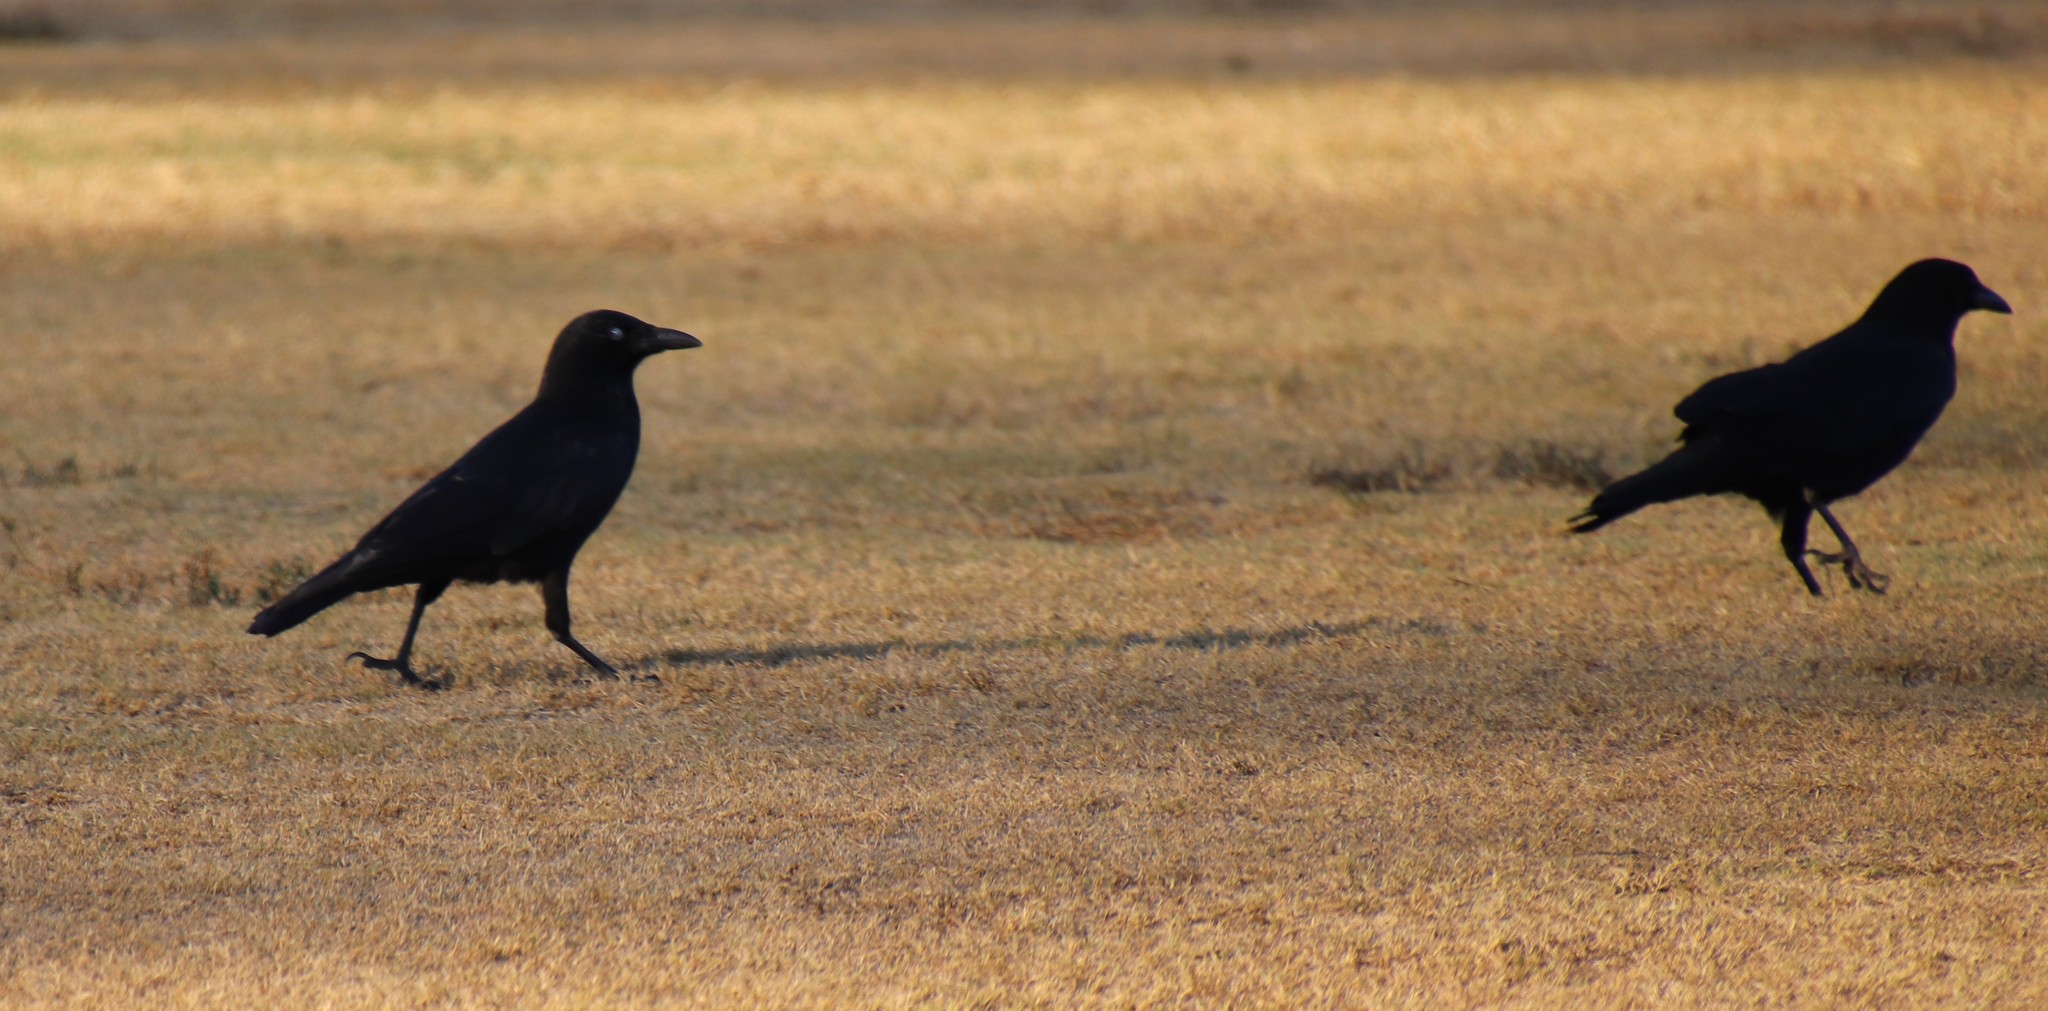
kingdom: Animalia
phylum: Chordata
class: Aves
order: Passeriformes
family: Corvidae
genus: Corvus
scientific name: Corvus brachyrhynchos
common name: American crow
